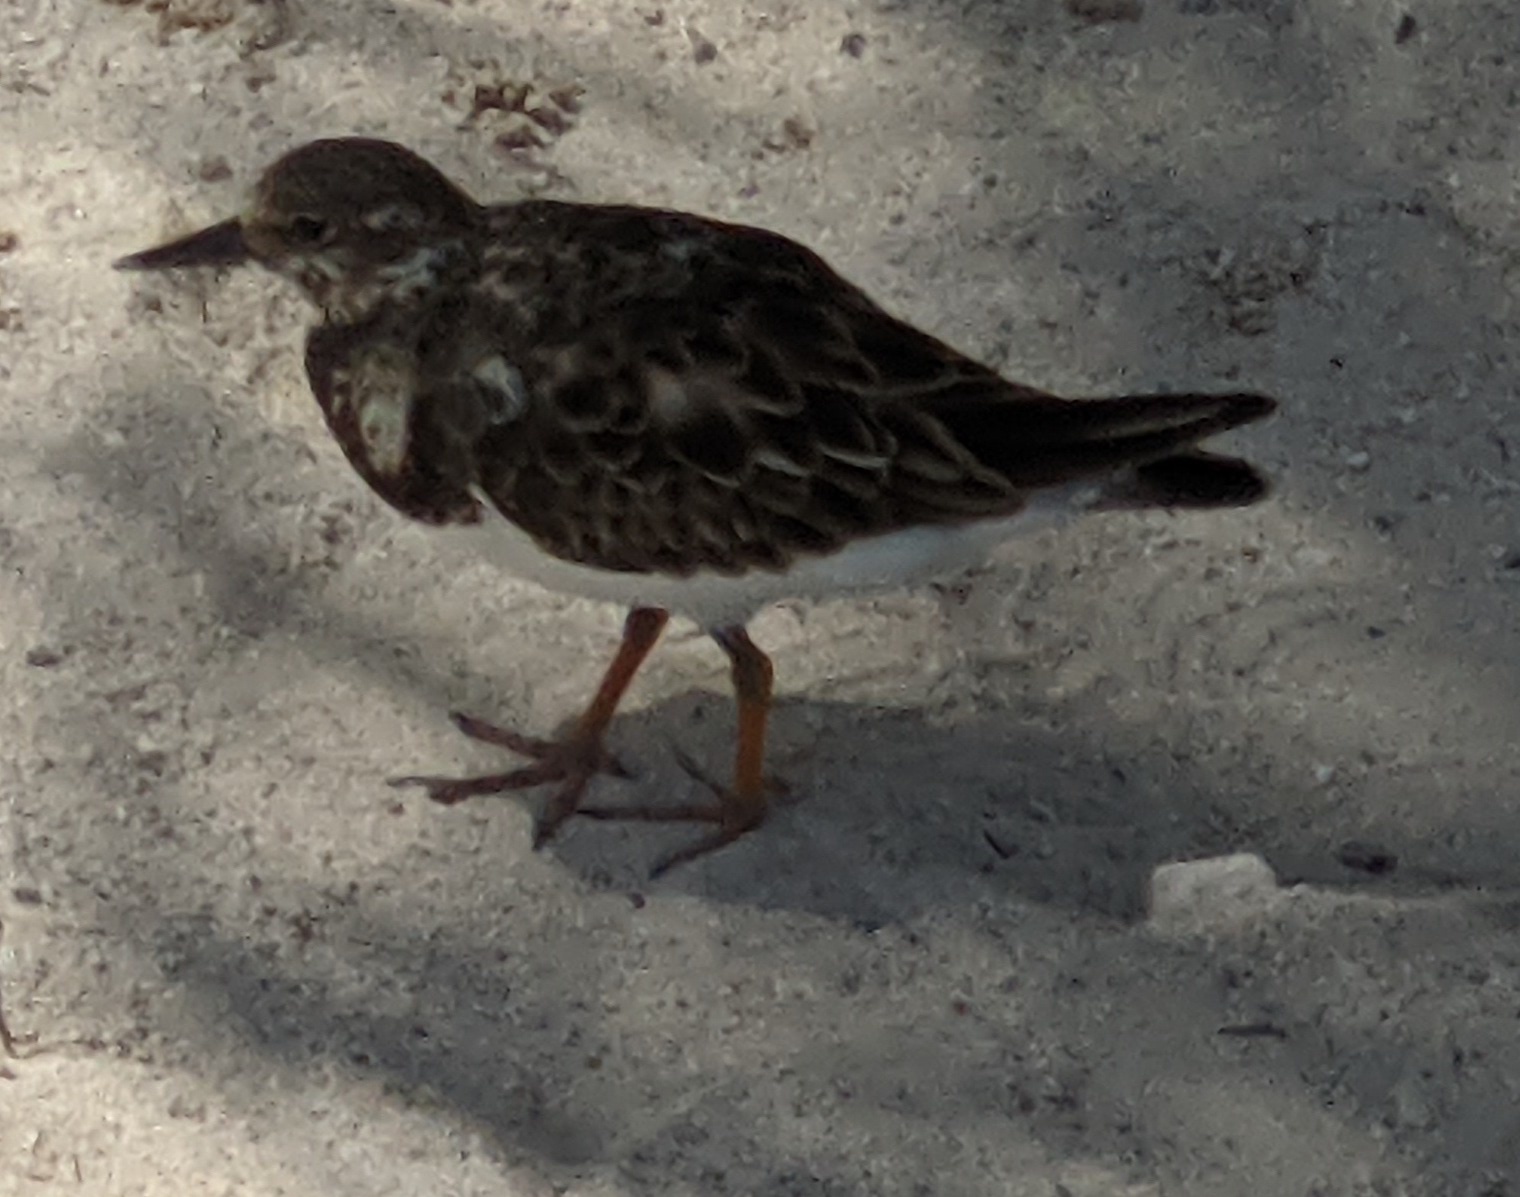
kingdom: Animalia
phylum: Chordata
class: Aves
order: Charadriiformes
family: Scolopacidae
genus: Arenaria
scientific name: Arenaria interpres
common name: Ruddy turnstone
